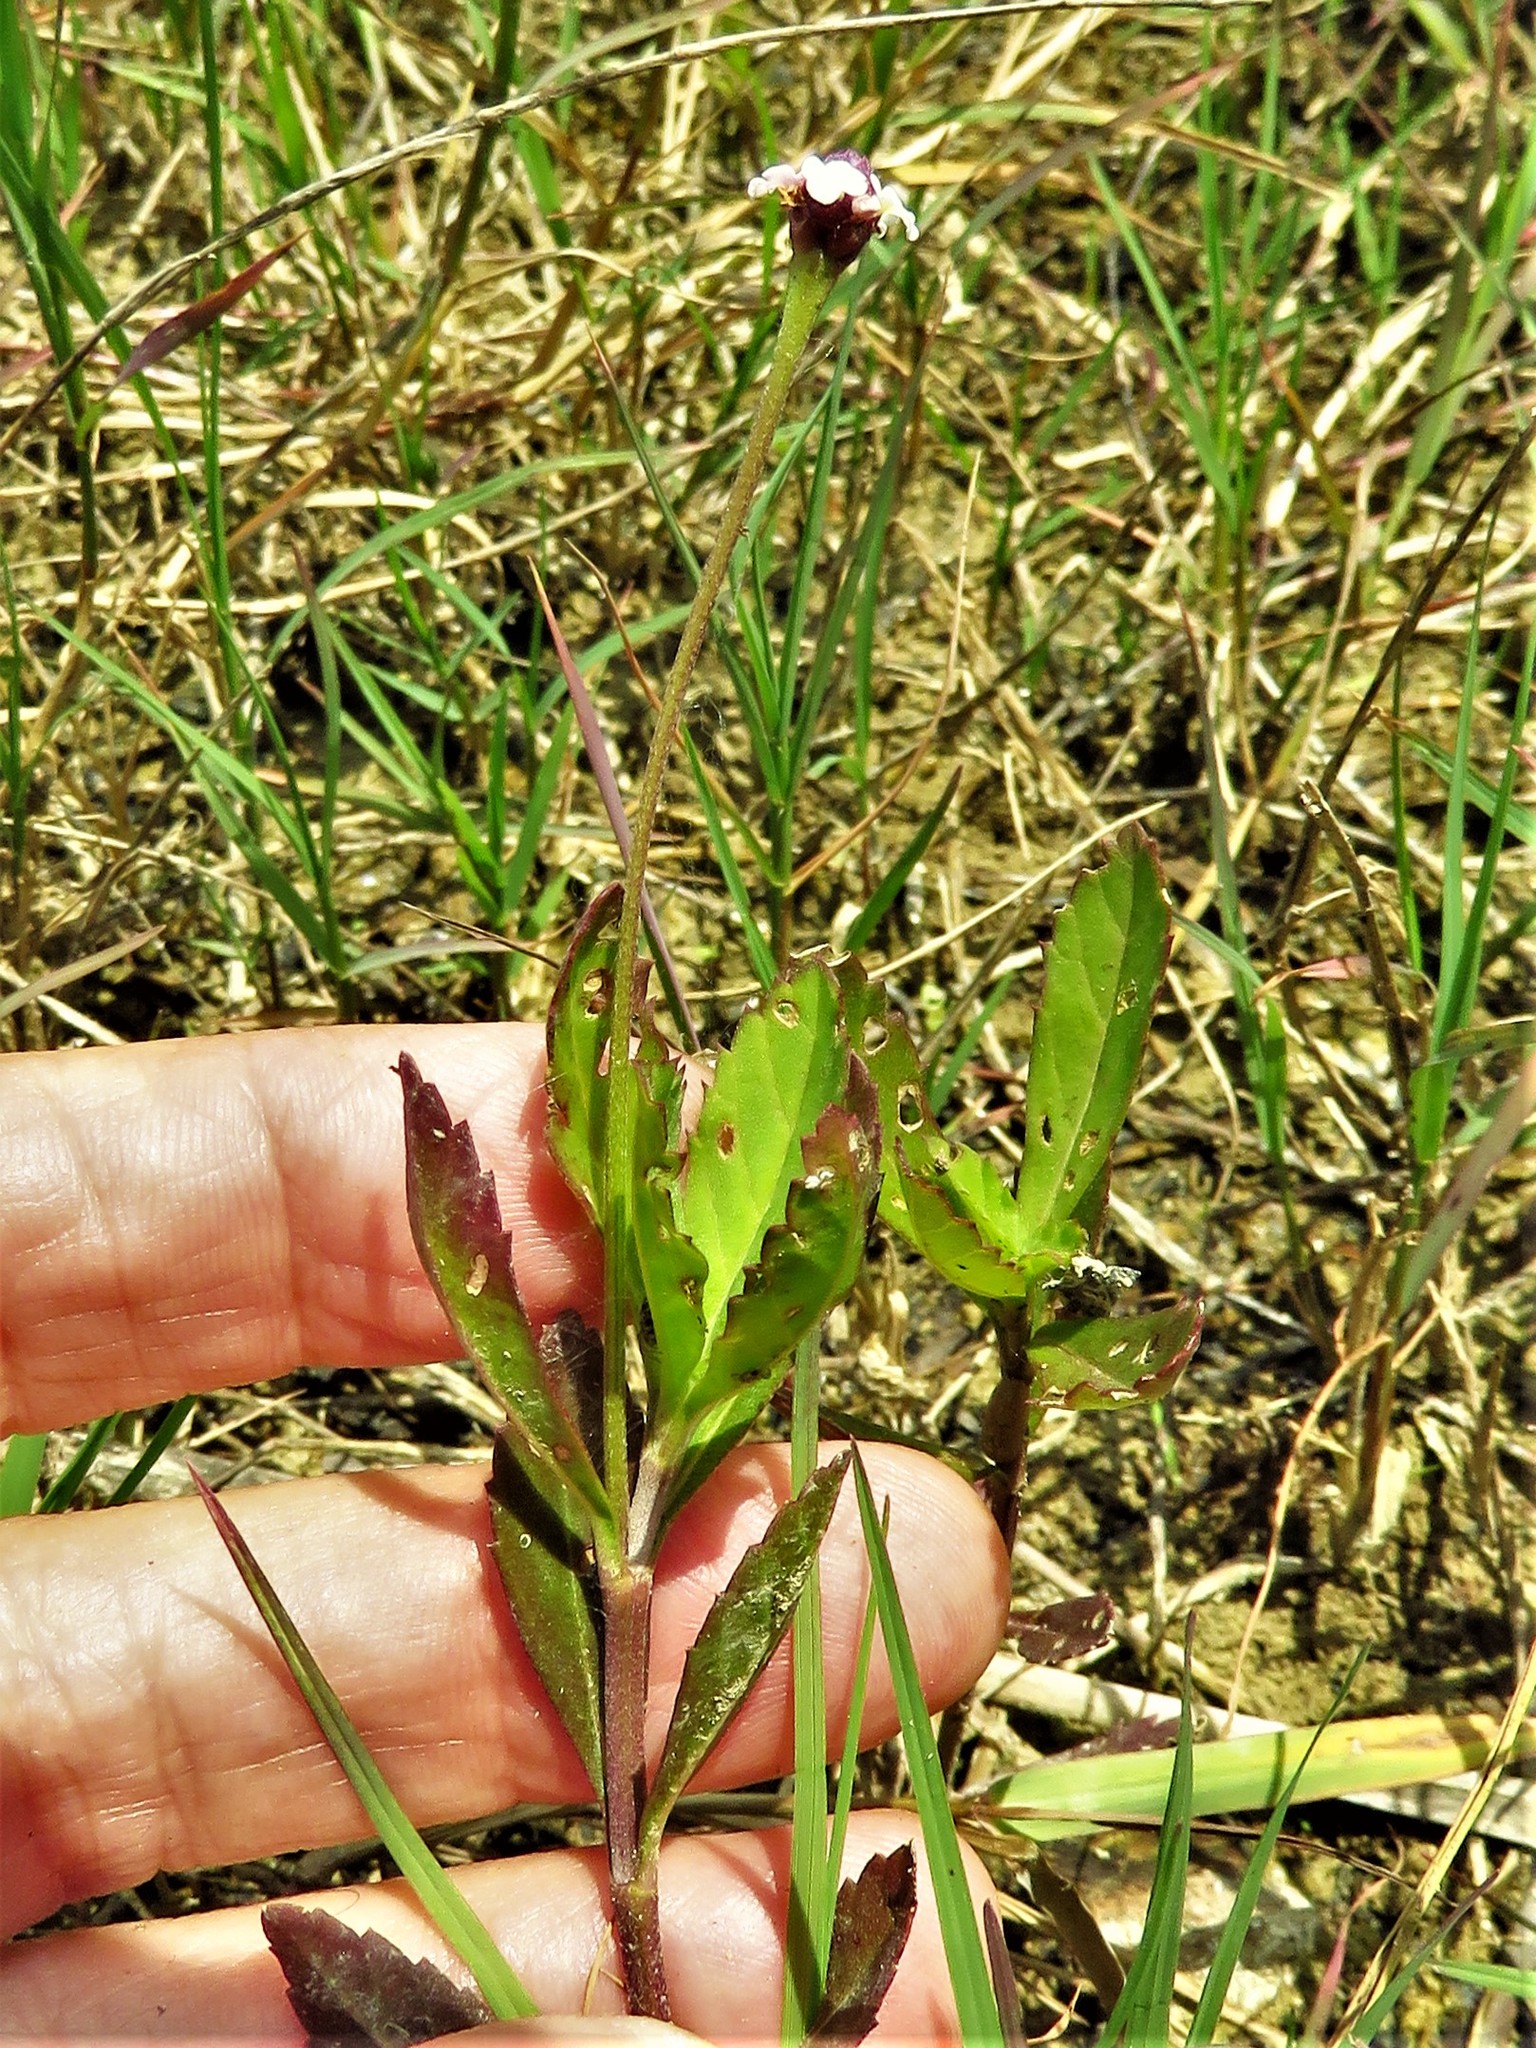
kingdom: Plantae
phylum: Tracheophyta
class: Magnoliopsida
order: Lamiales
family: Verbenaceae
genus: Phyla
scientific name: Phyla lanceolata
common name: Northern fogfruit
